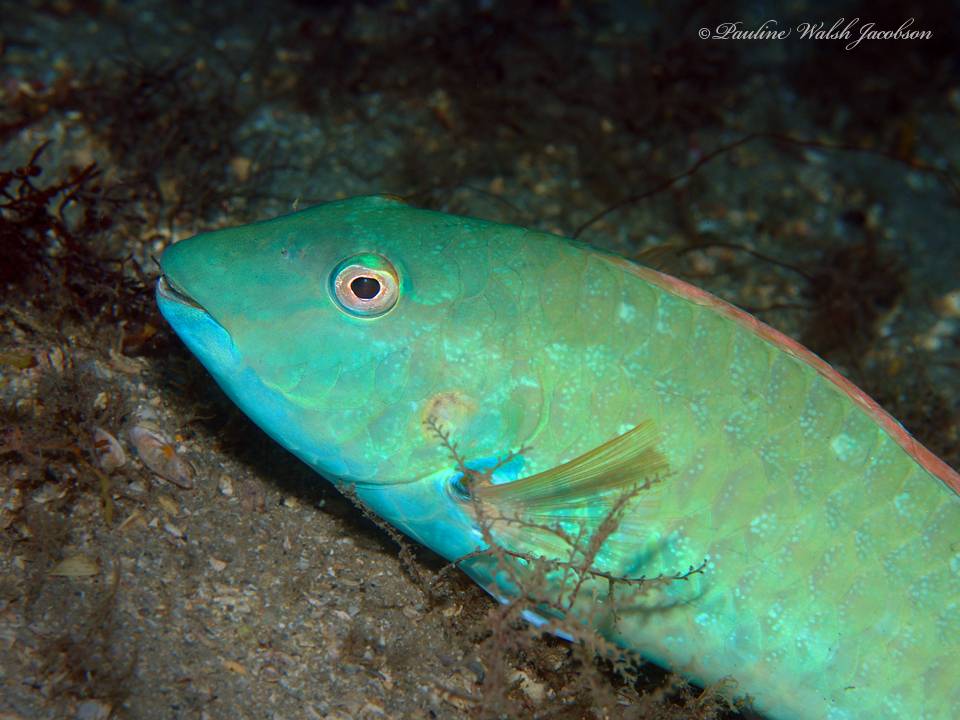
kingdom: Animalia
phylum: Chordata
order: Perciformes
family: Scaridae
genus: Sparisoma
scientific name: Sparisoma rubripinne
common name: Redfin parrotfish
